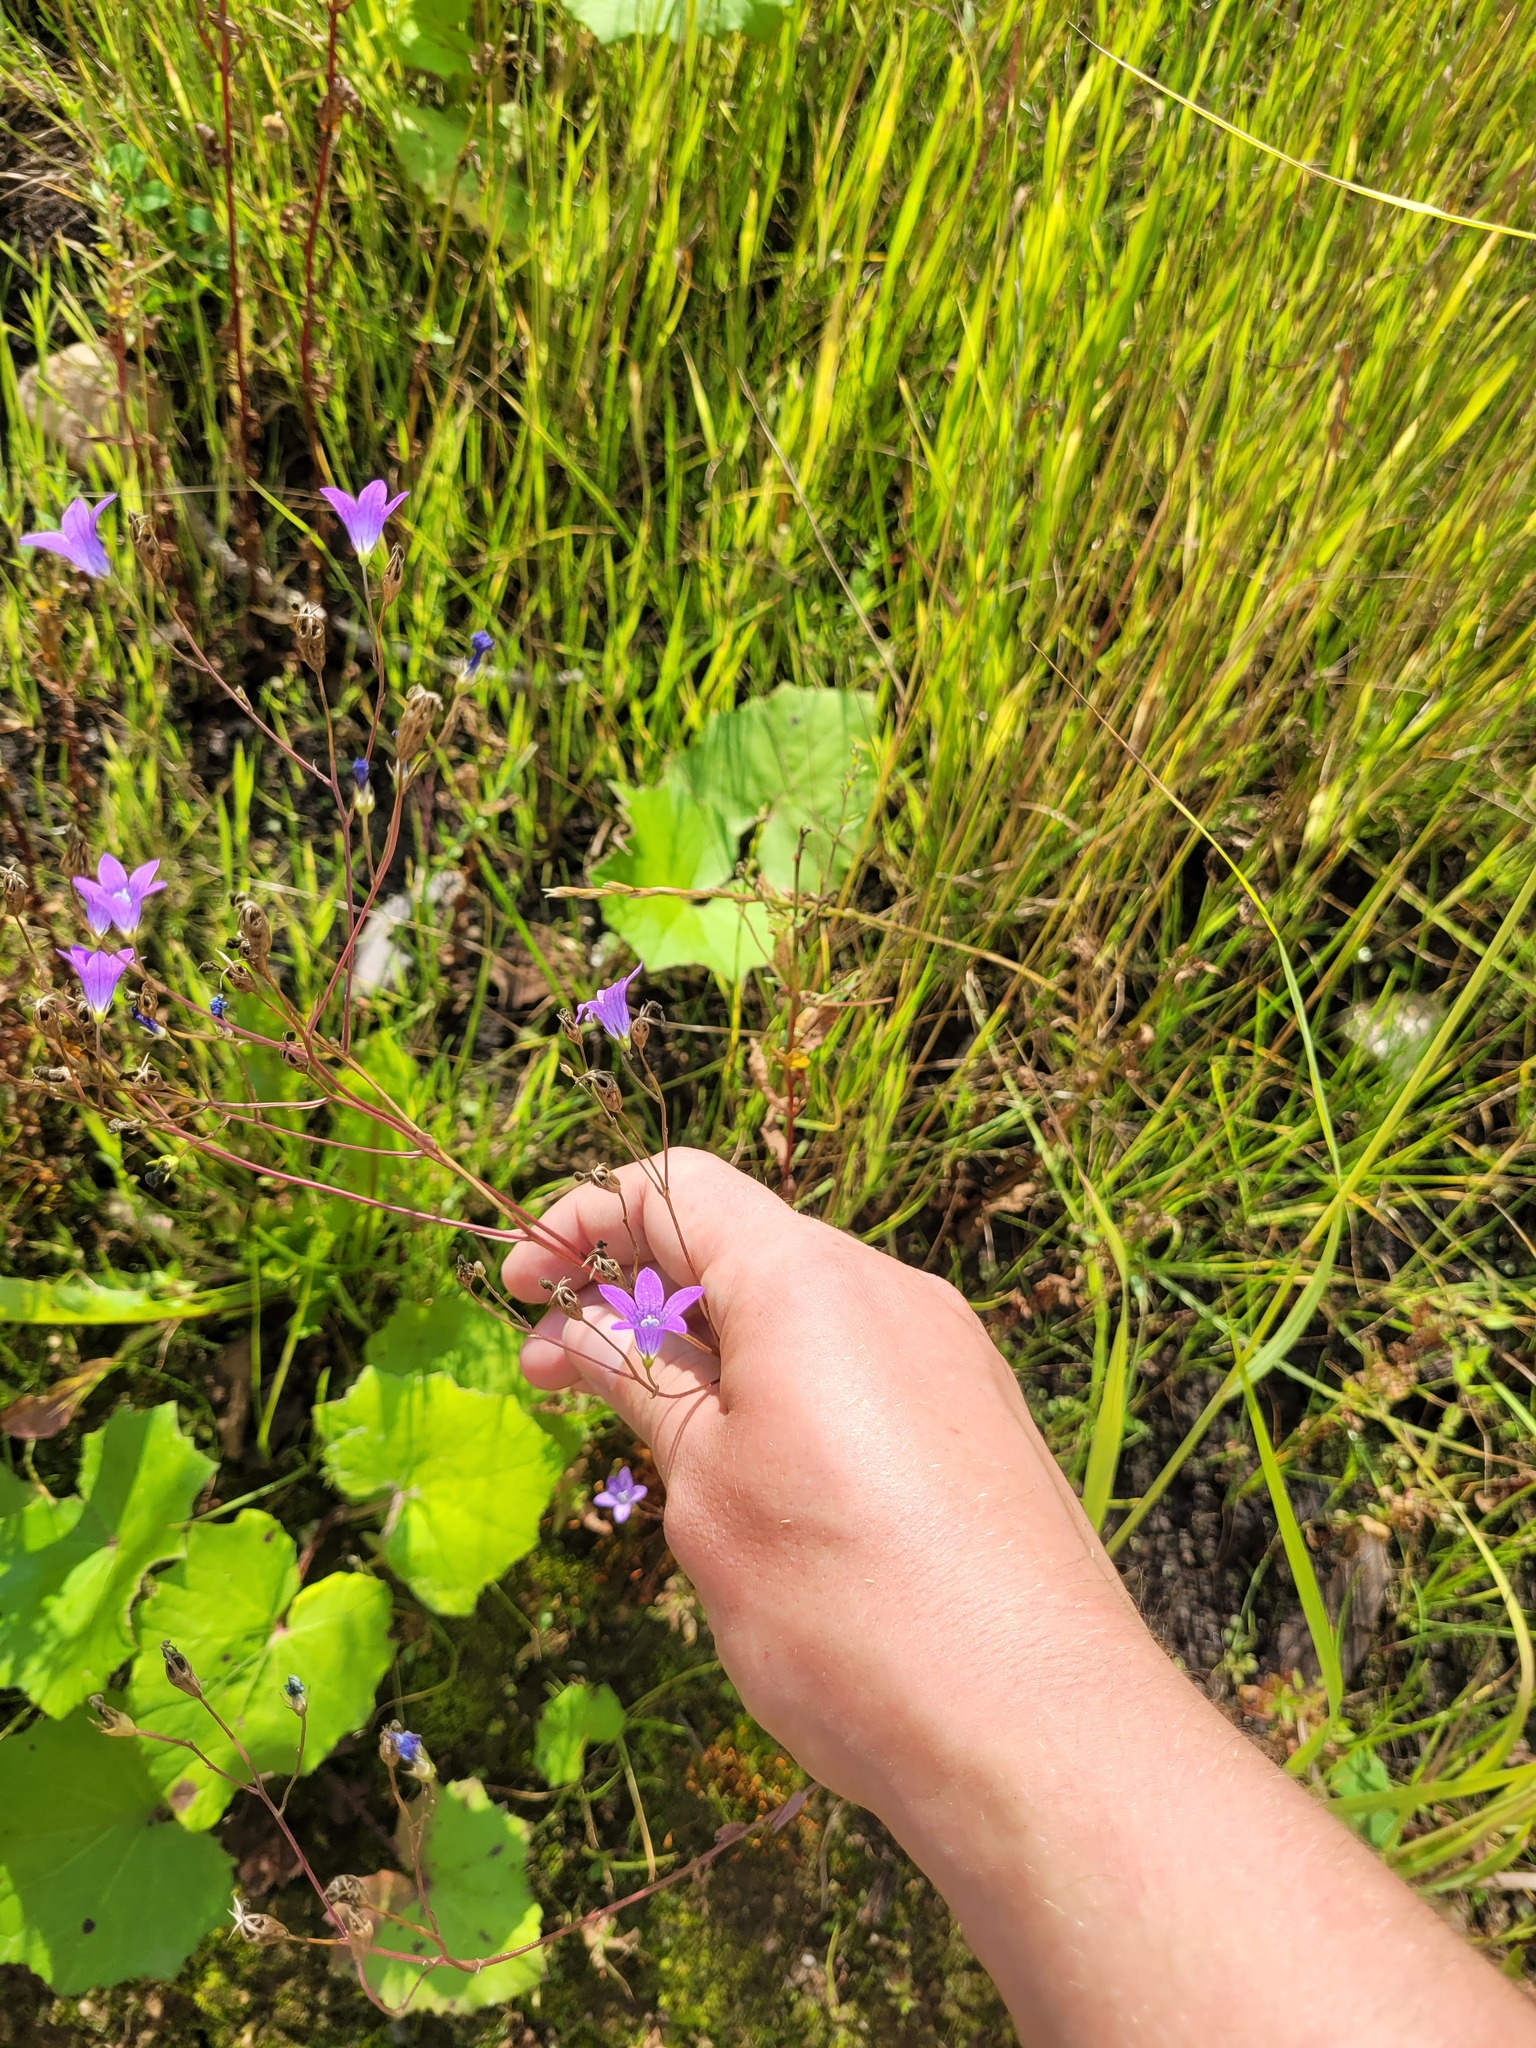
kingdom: Plantae
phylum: Tracheophyta
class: Magnoliopsida
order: Asterales
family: Campanulaceae
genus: Campanula
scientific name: Campanula patula
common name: Spreading bellflower
